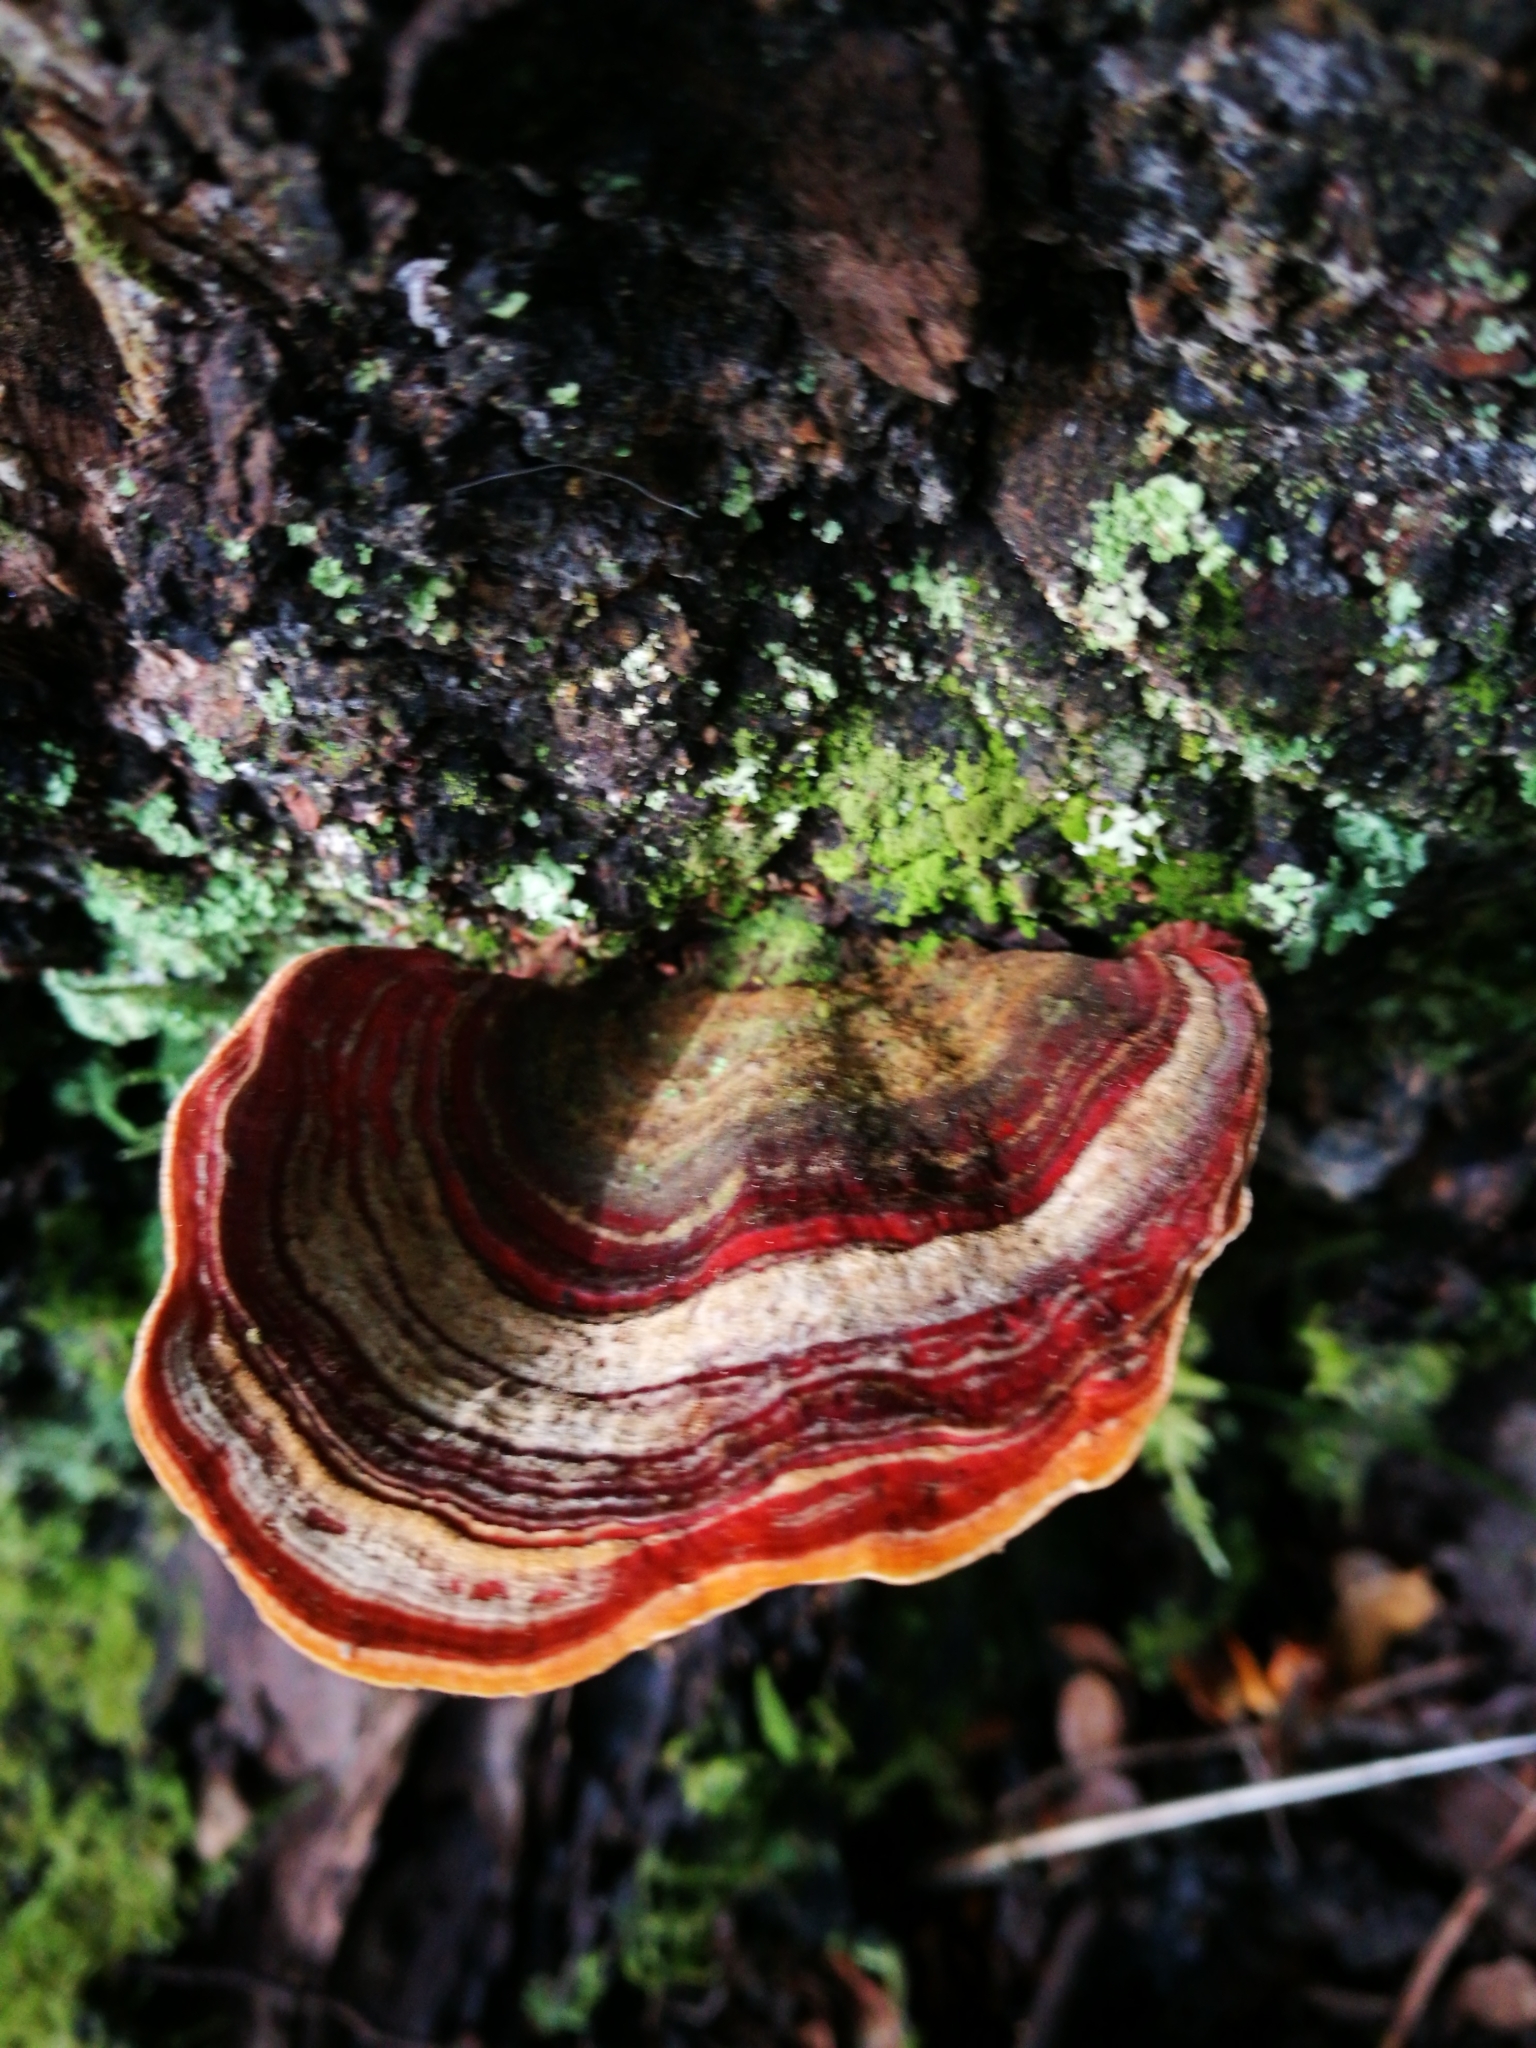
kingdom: Fungi
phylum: Basidiomycota
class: Agaricomycetes
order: Russulales
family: Stereaceae
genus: Stereum
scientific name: Stereum versicolor
